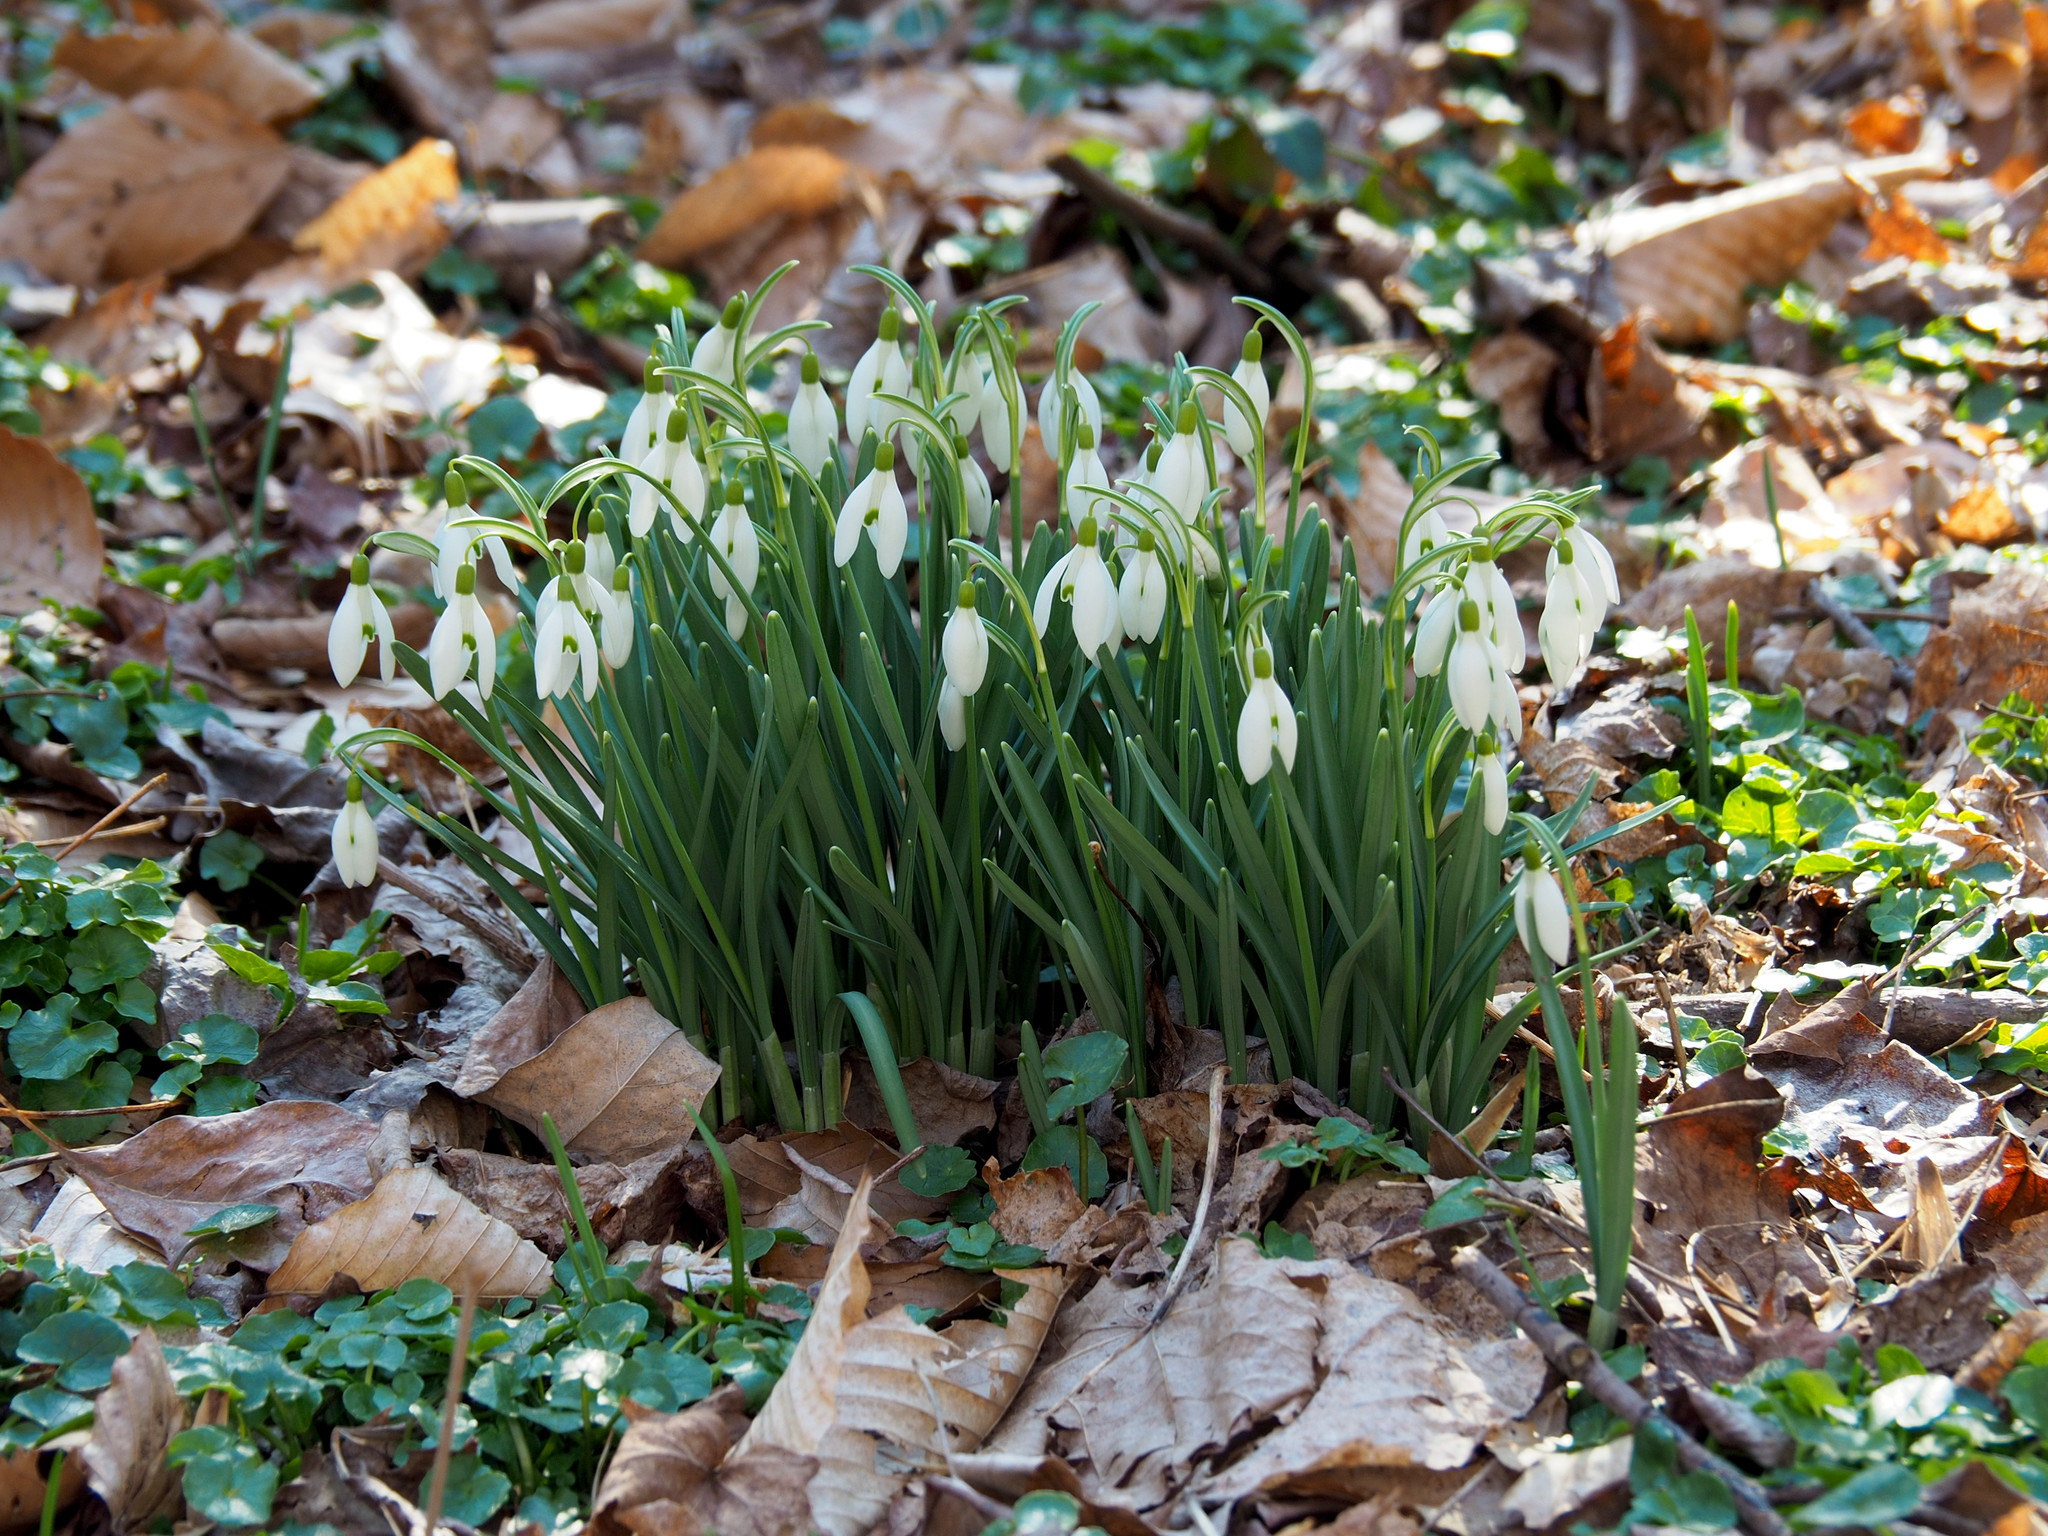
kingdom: Plantae
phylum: Tracheophyta
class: Liliopsida
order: Asparagales
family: Amaryllidaceae
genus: Galanthus
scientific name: Galanthus nivalis
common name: Snowdrop
